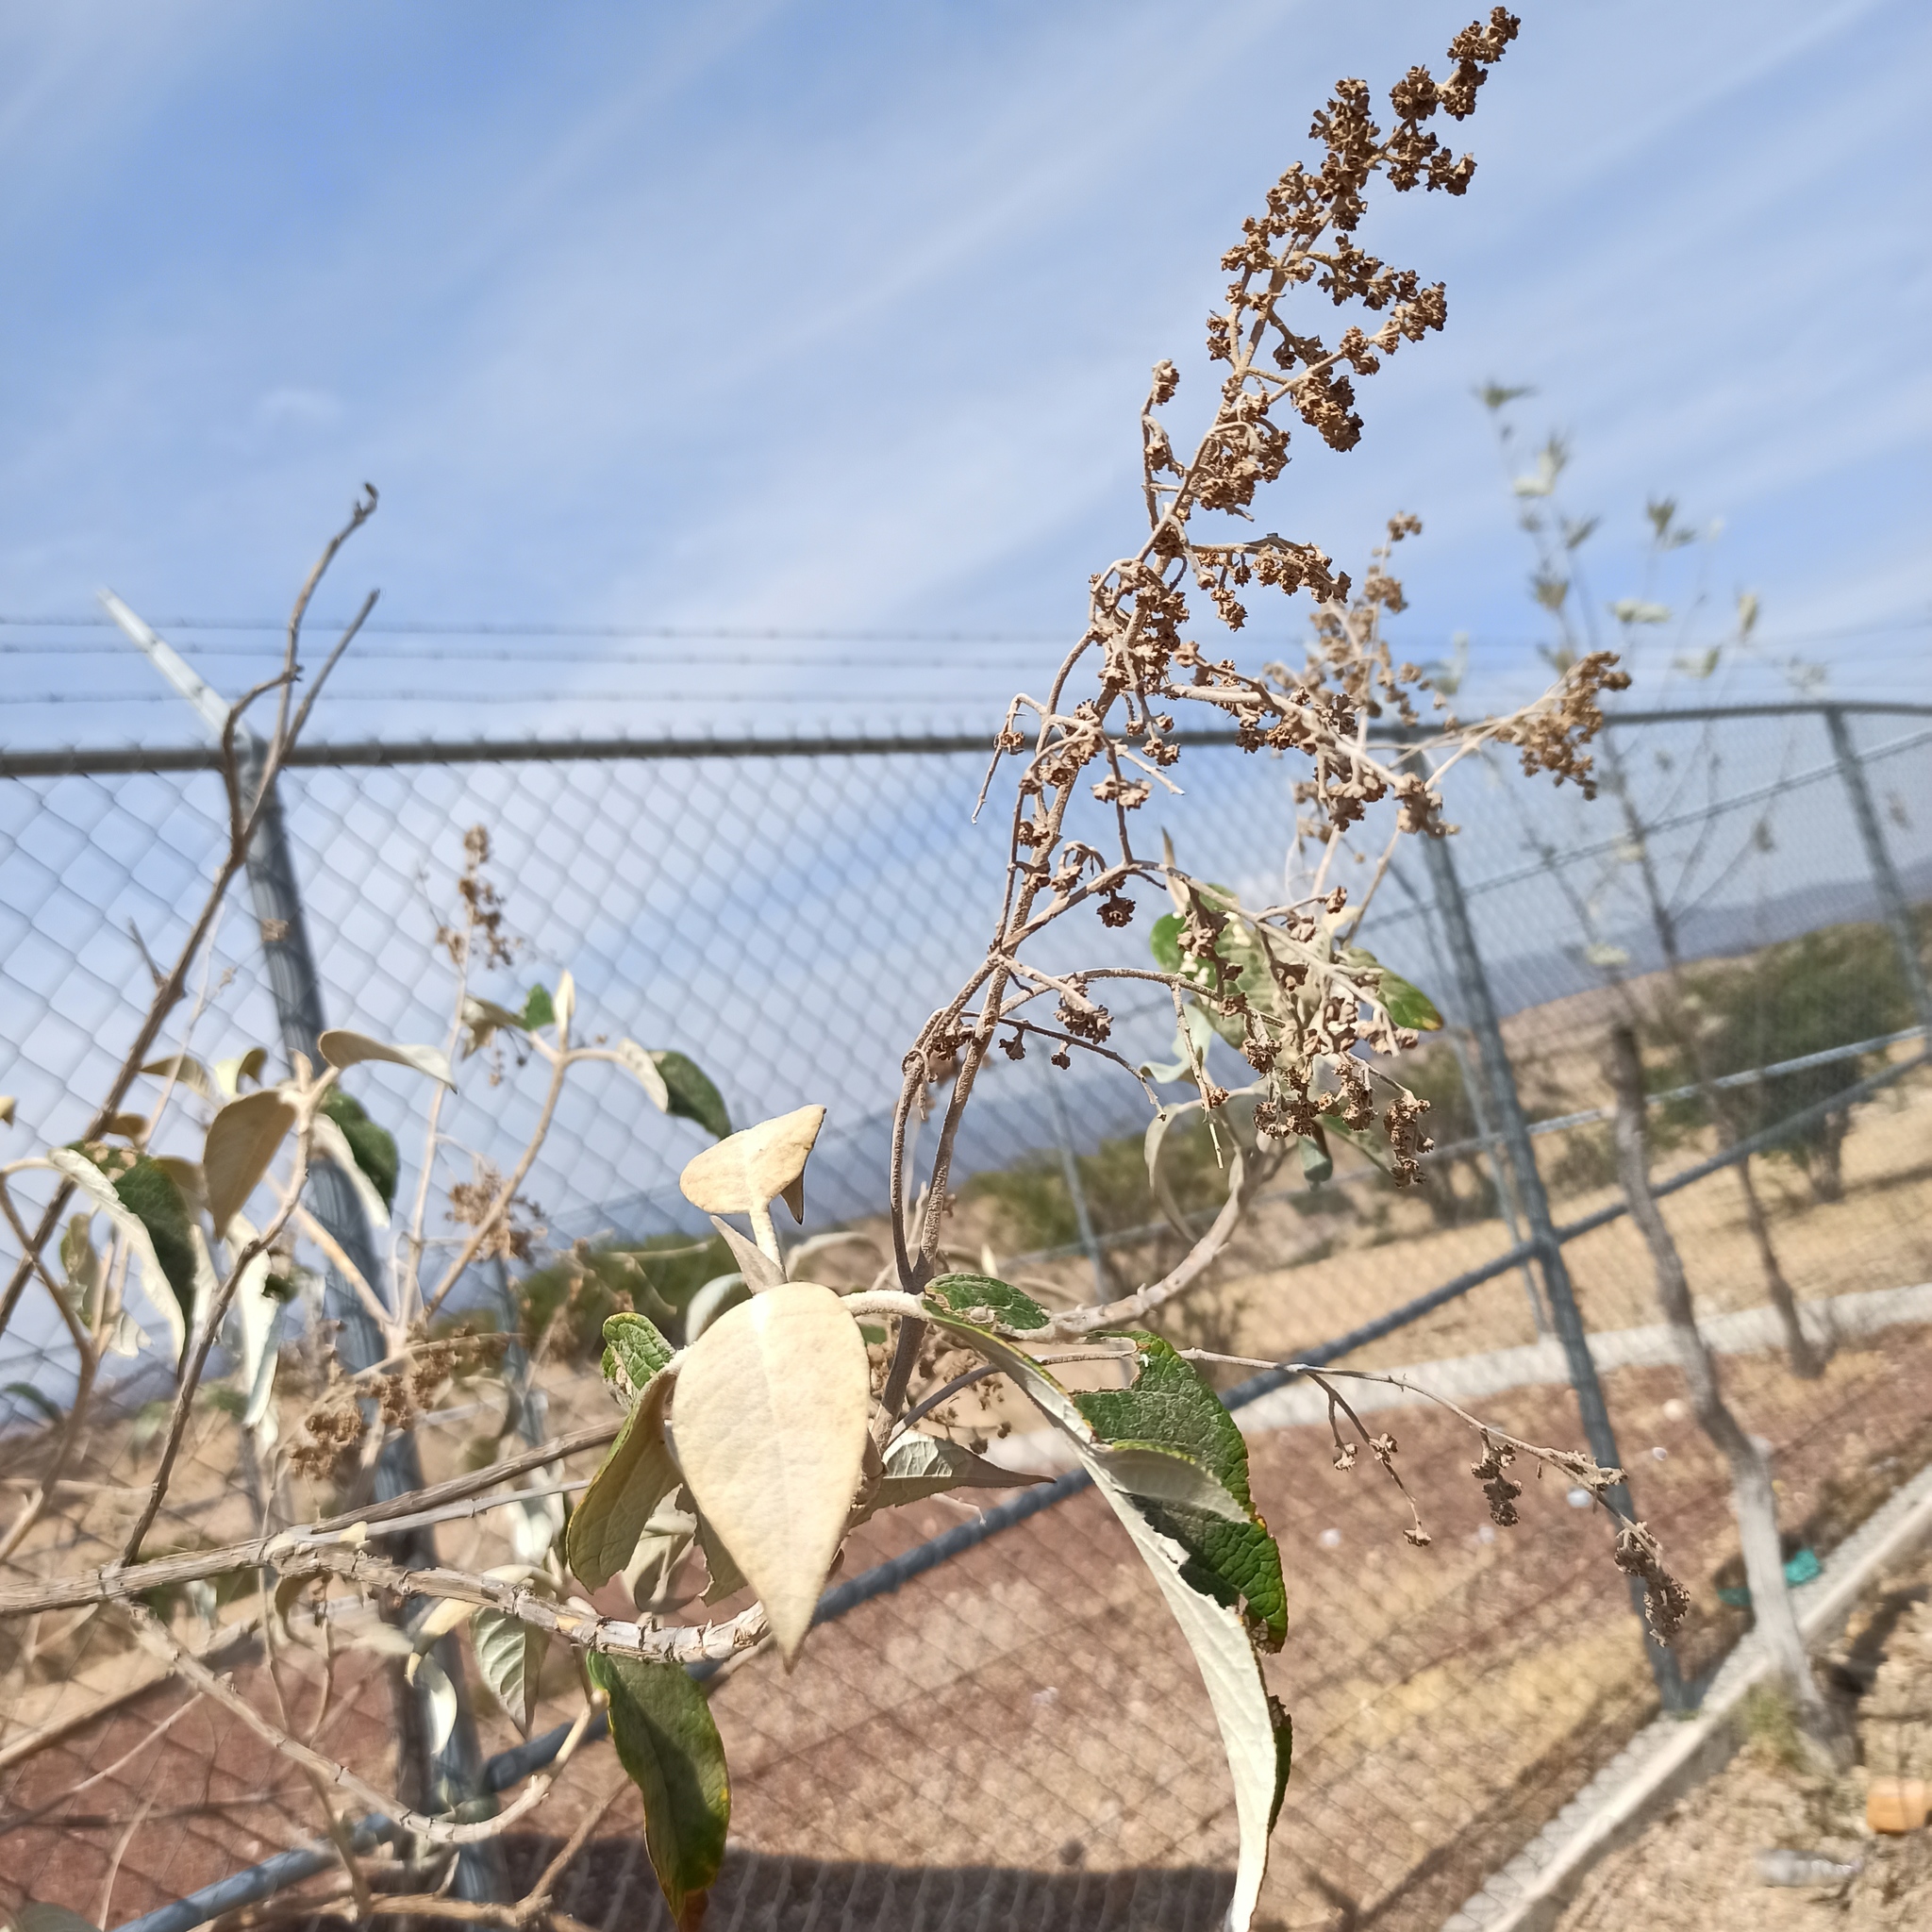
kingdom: Plantae
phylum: Tracheophyta
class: Magnoliopsida
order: Lamiales
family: Scrophulariaceae
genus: Buddleja
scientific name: Buddleja cordata
